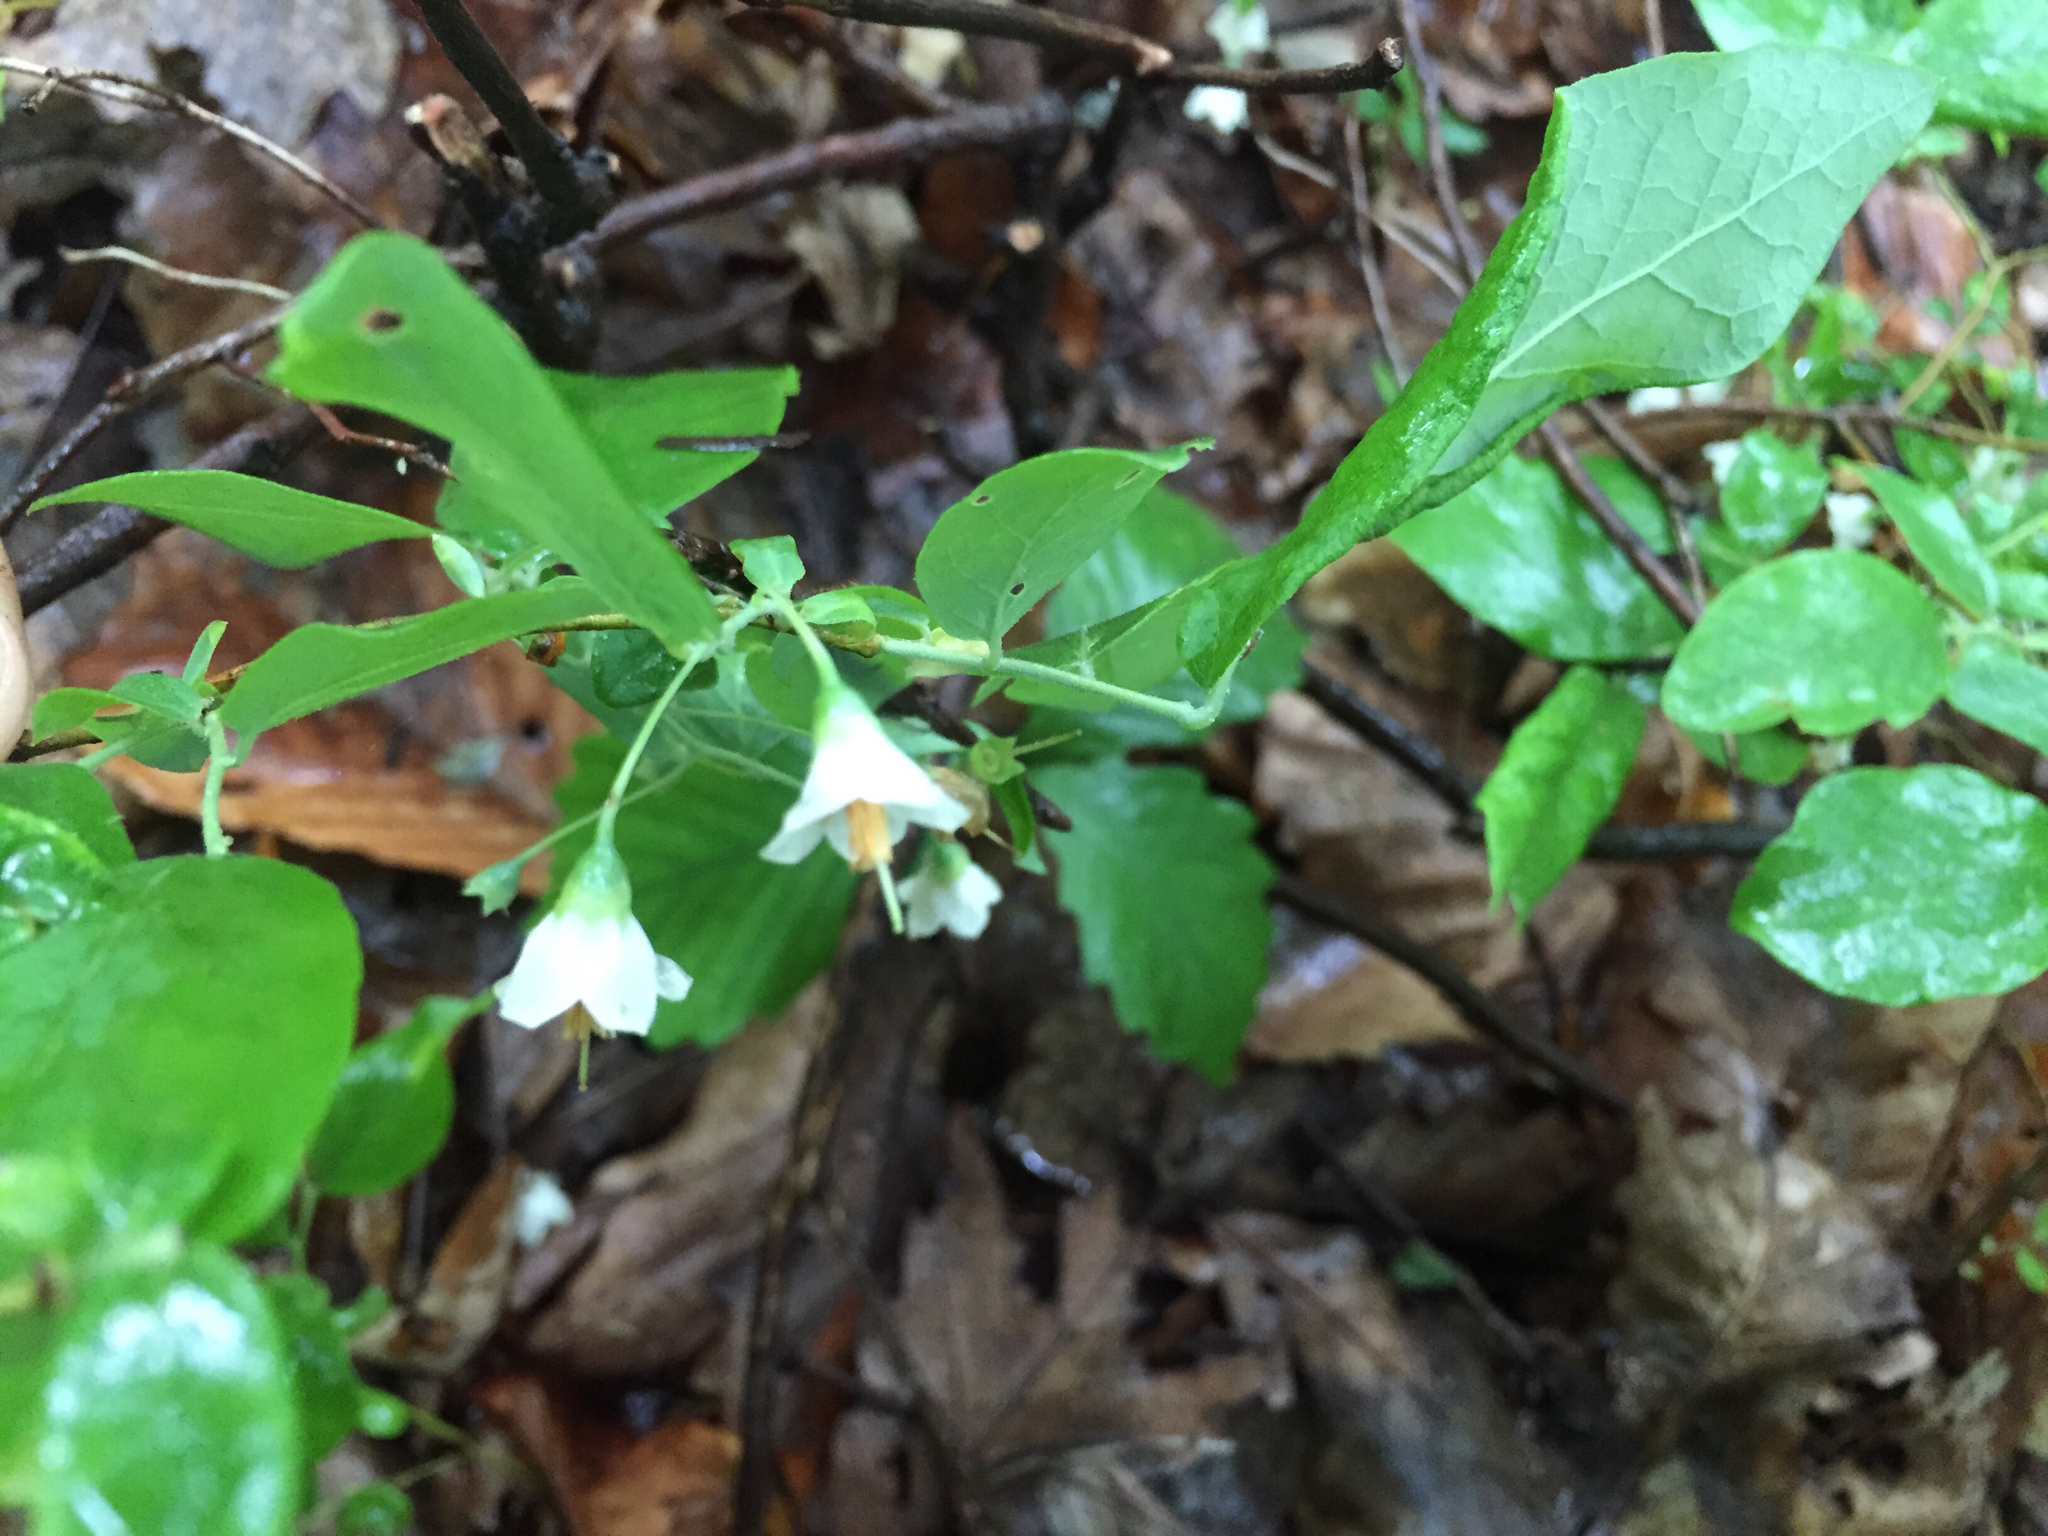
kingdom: Plantae
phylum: Tracheophyta
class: Magnoliopsida
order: Ericales
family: Ericaceae
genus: Vaccinium
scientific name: Vaccinium stamineum
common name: Deerberry
